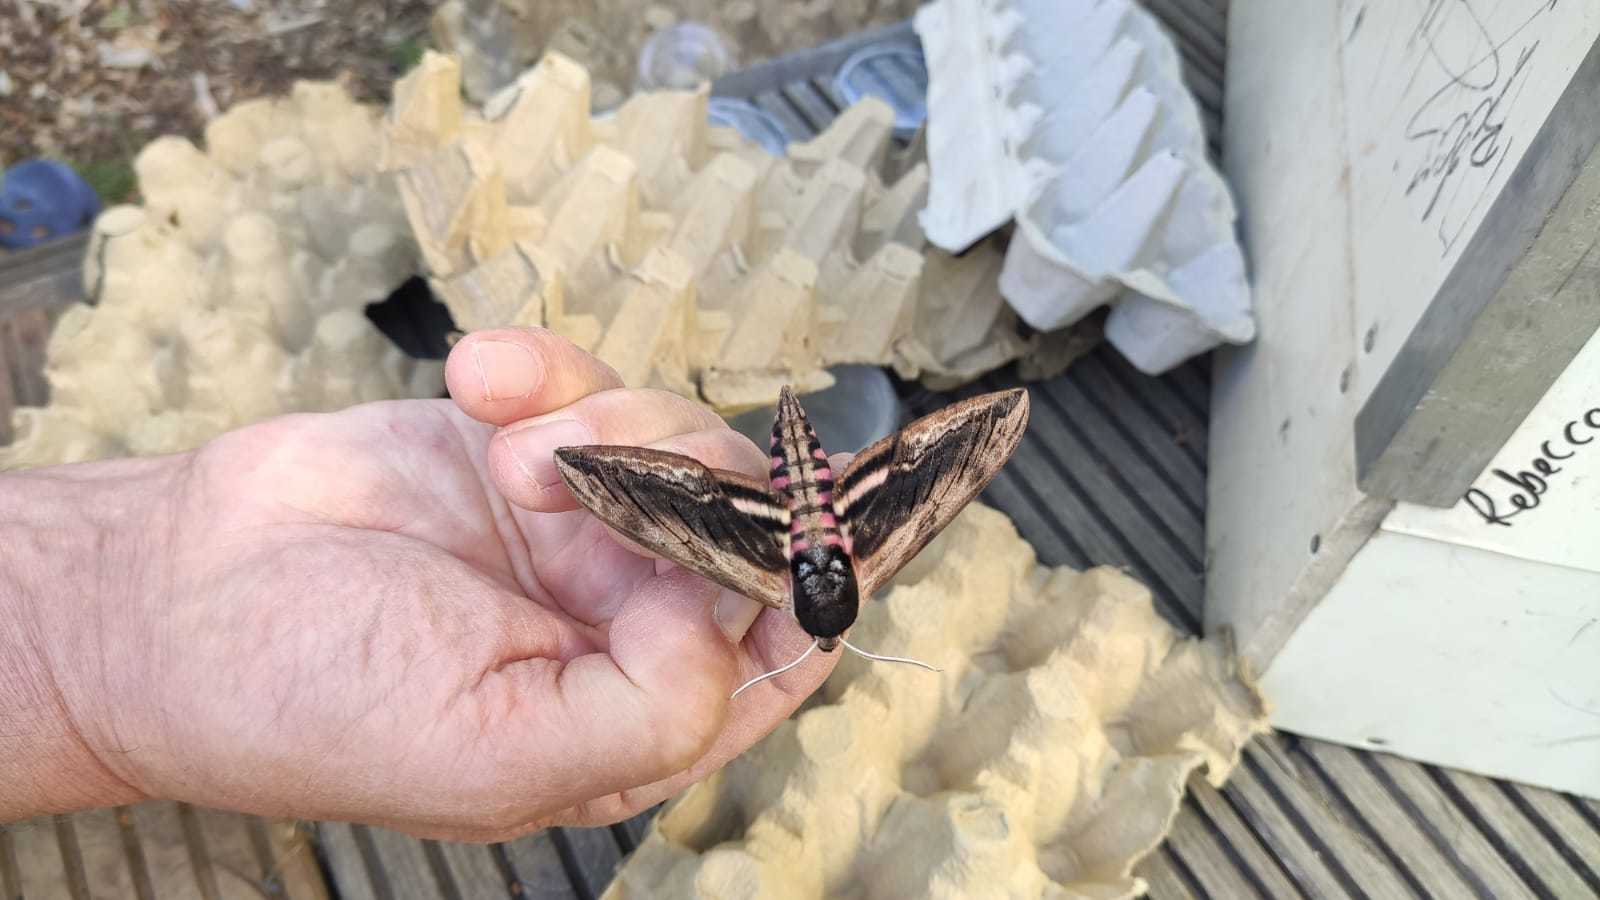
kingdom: Animalia
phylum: Arthropoda
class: Insecta
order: Lepidoptera
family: Sphingidae
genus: Sphinx
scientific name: Sphinx ligustri
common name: Privet hawk-moth
